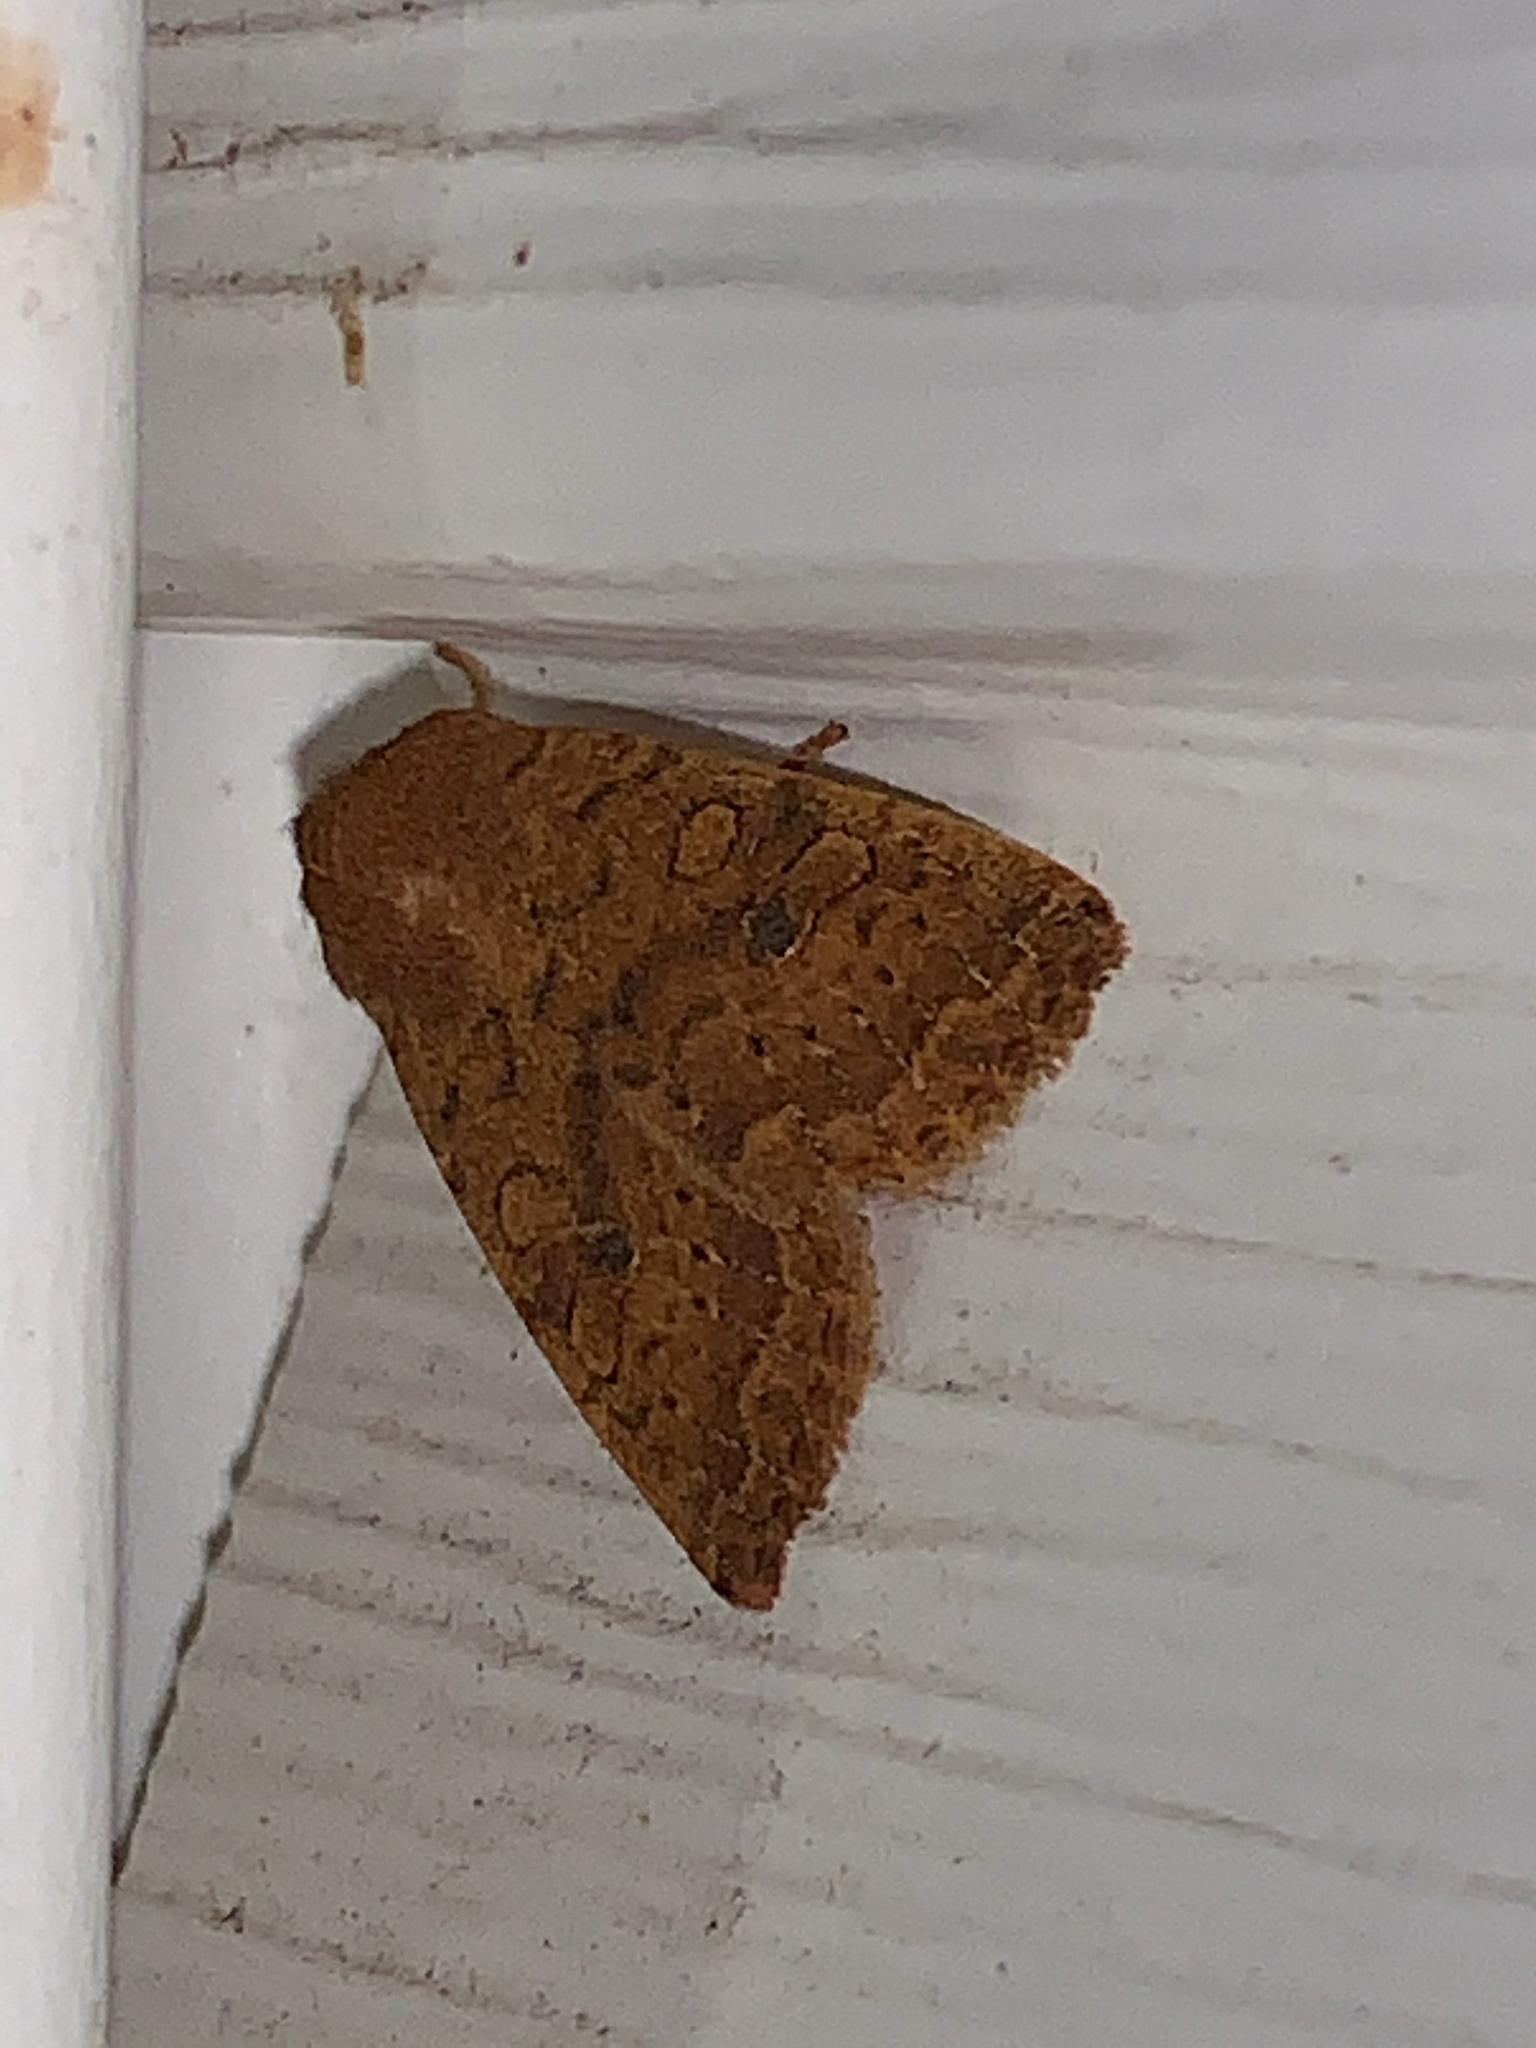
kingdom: Animalia
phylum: Arthropoda
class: Insecta
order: Lepidoptera
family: Noctuidae
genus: Agrochola
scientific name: Agrochola bicolorago
